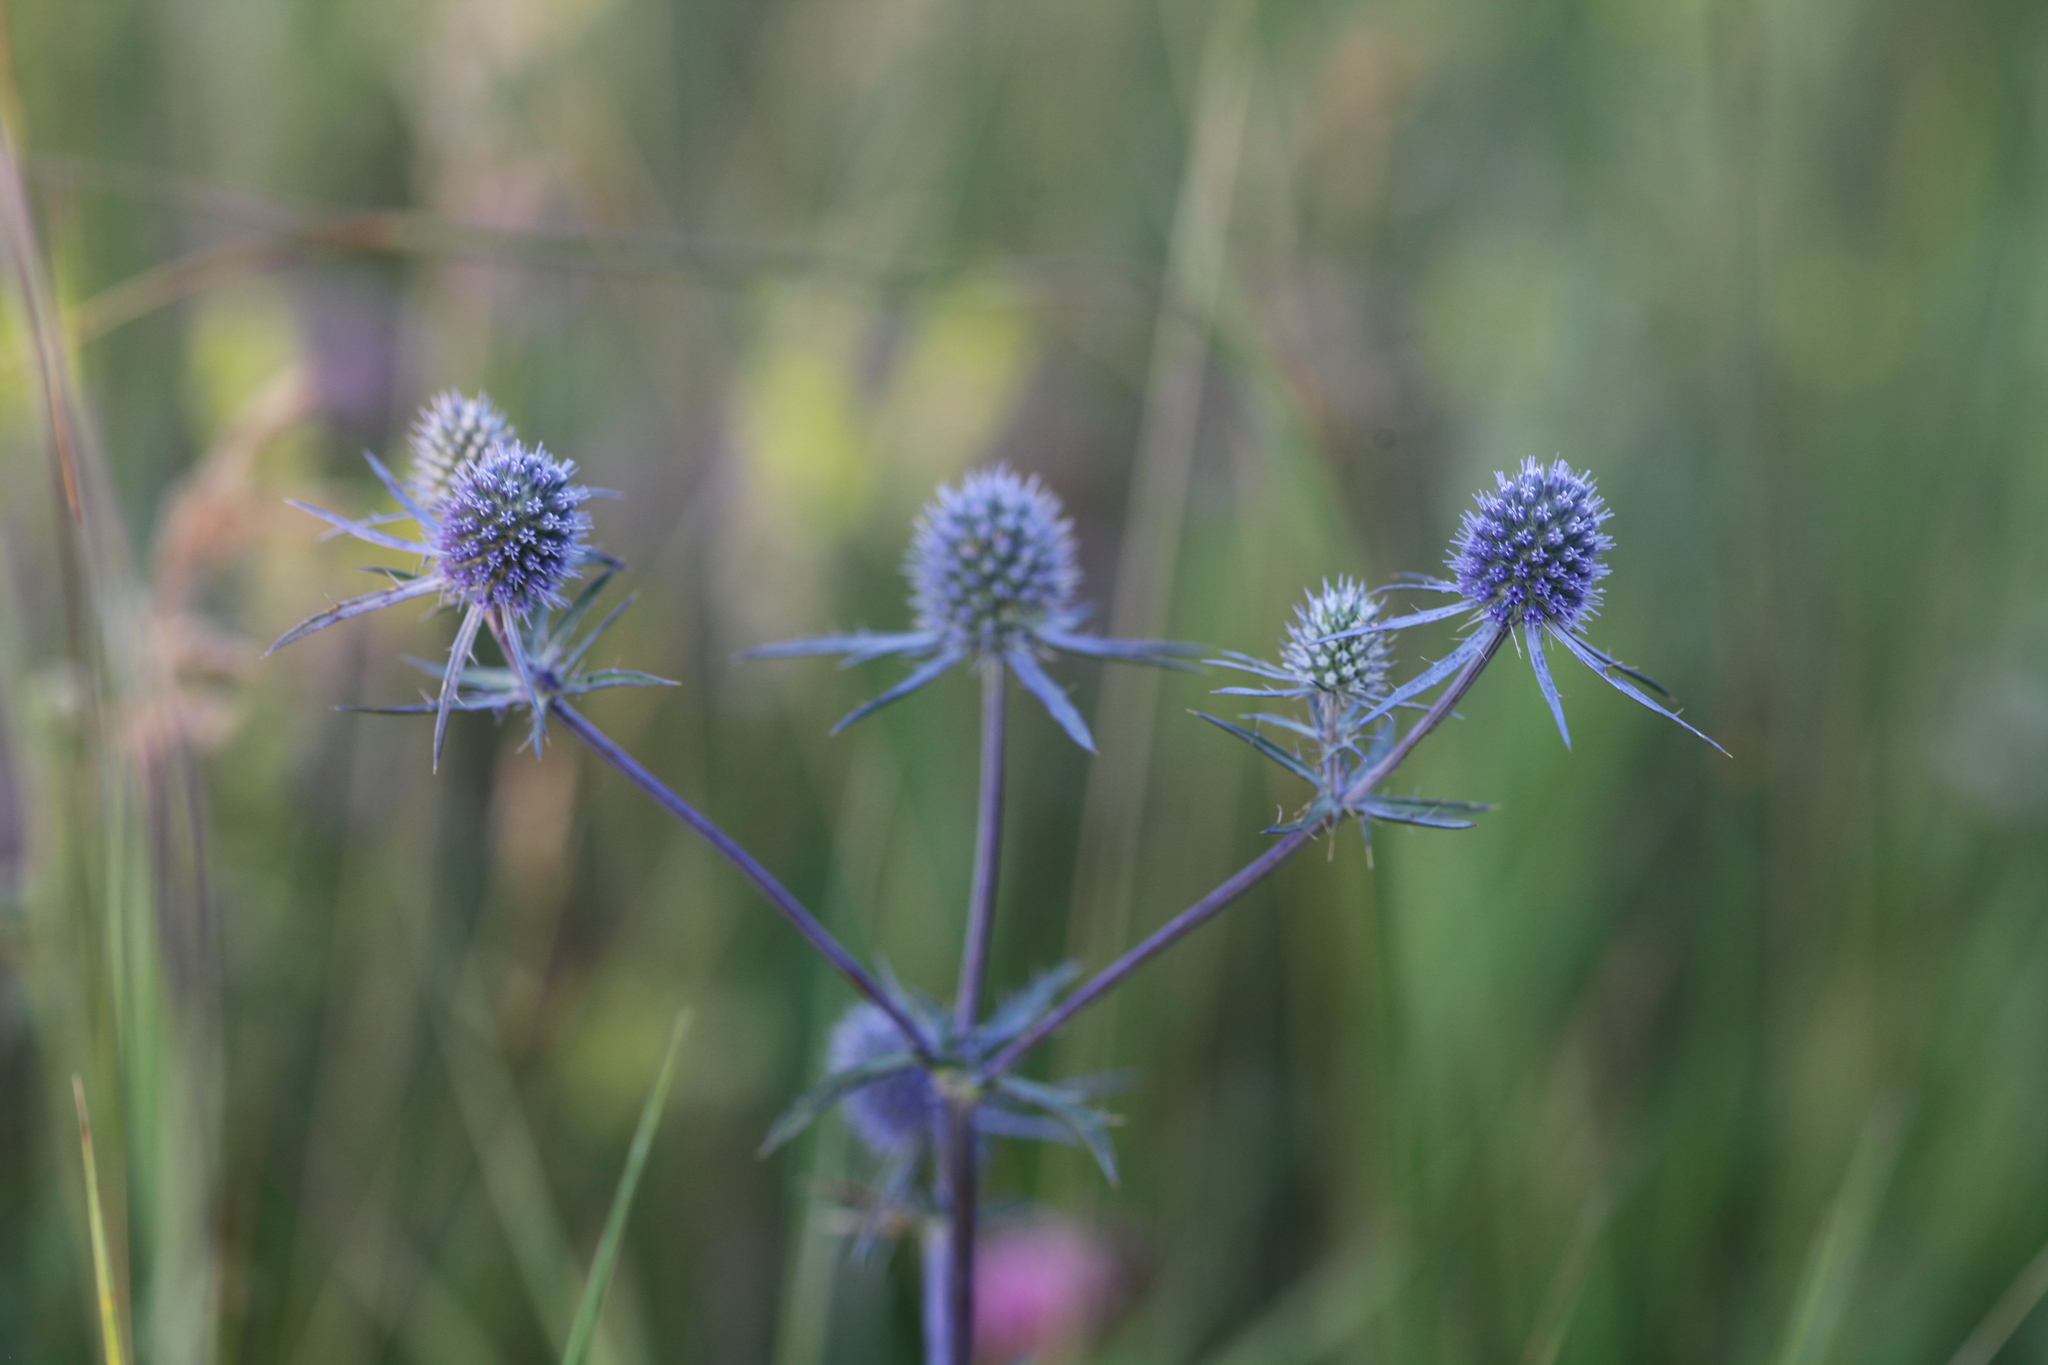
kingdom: Plantae
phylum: Tracheophyta
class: Magnoliopsida
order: Apiales
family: Apiaceae
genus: Eryngium
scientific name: Eryngium planum
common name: Blue eryngo
